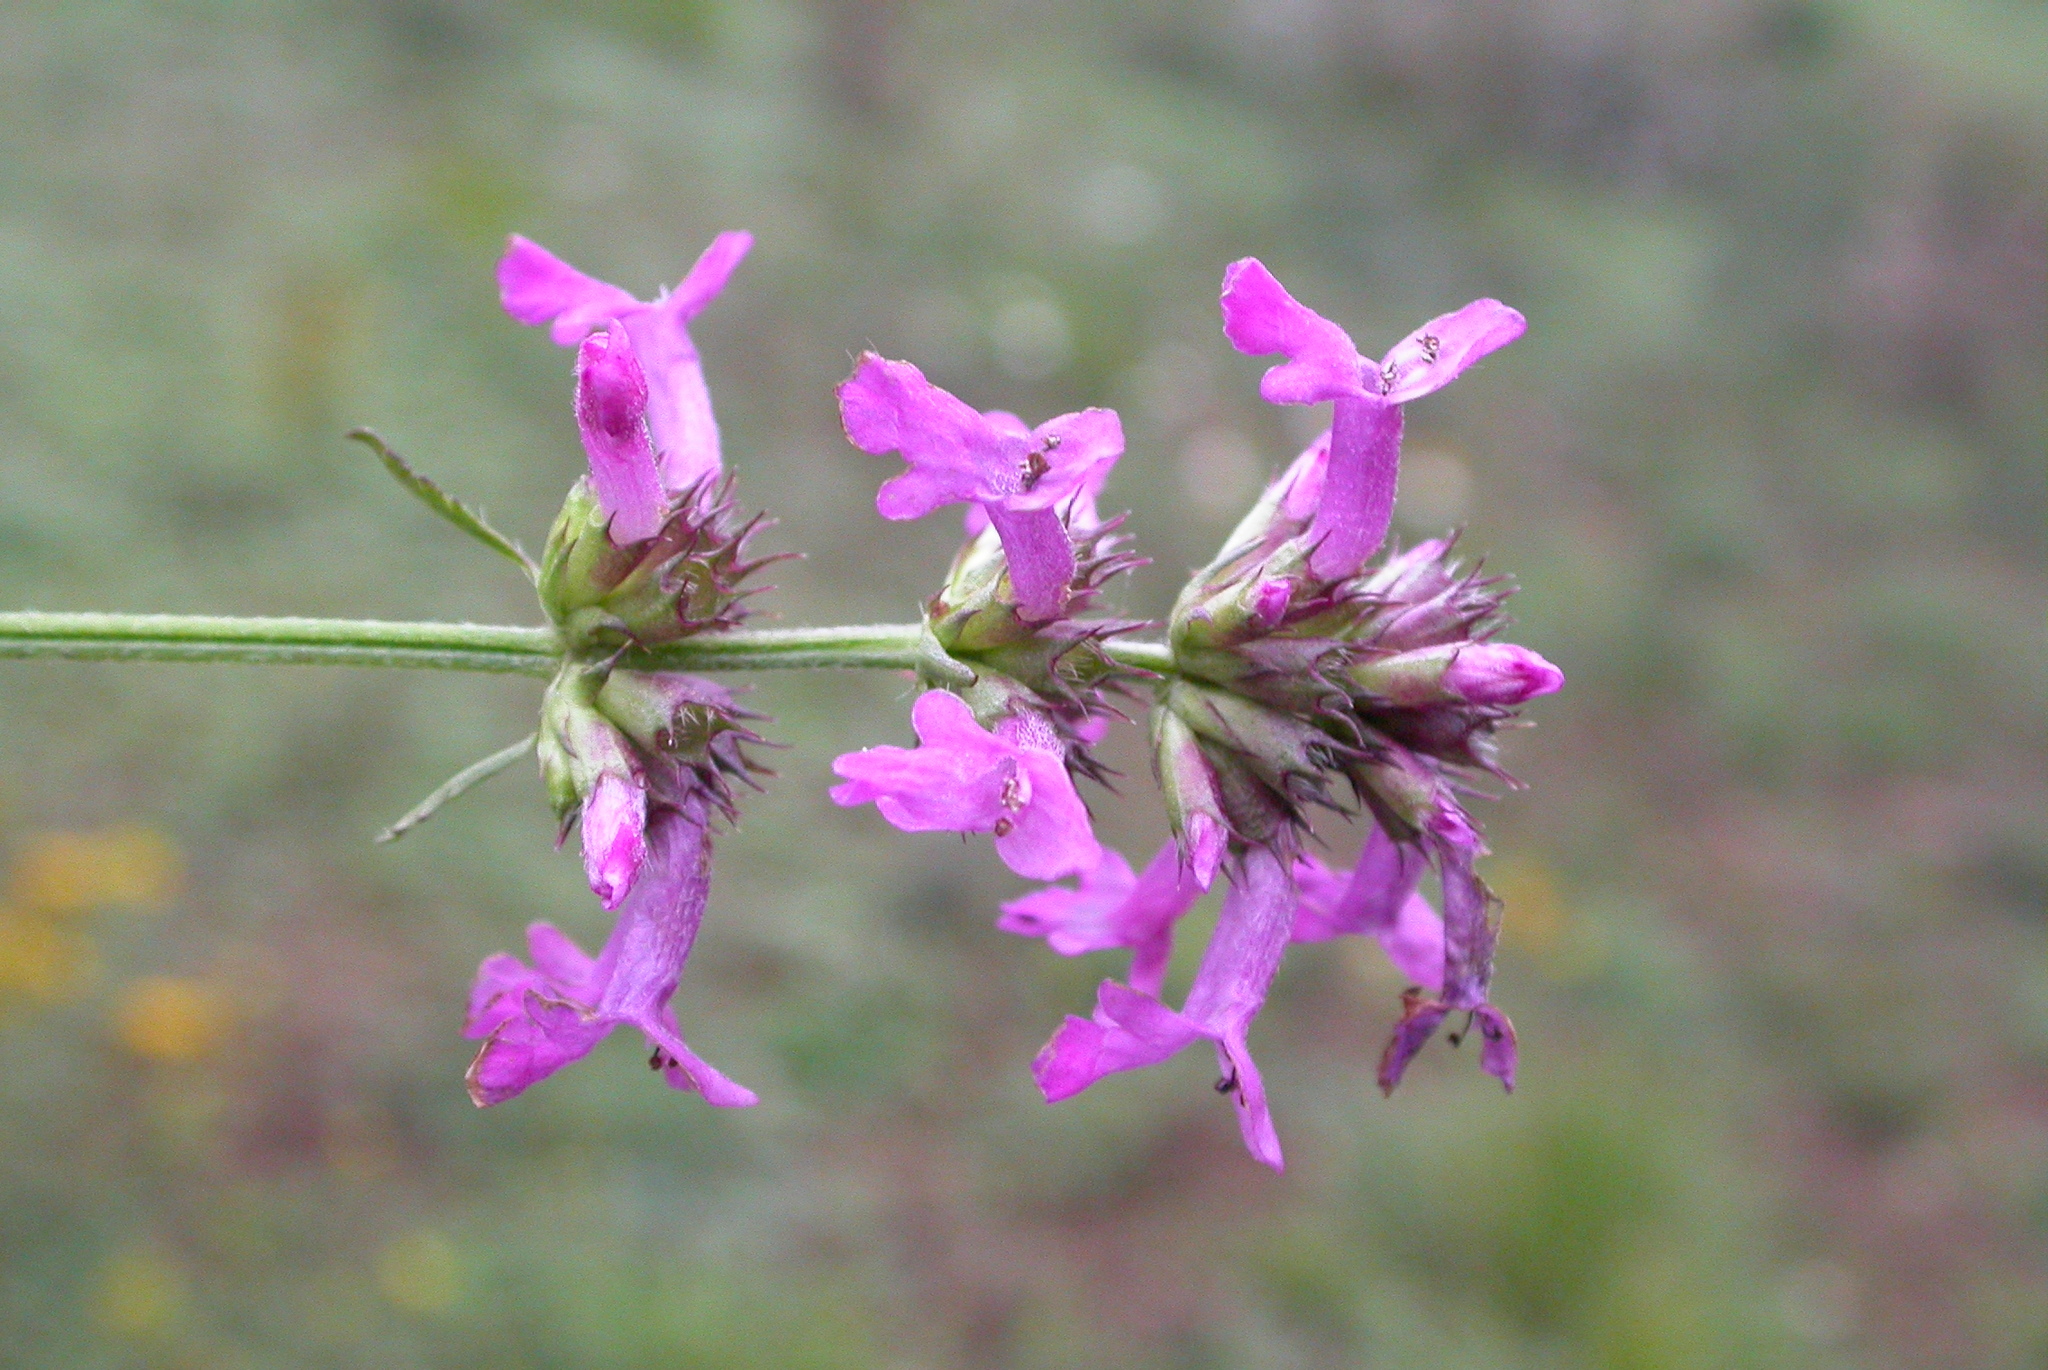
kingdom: Plantae
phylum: Tracheophyta
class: Magnoliopsida
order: Lamiales
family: Lamiaceae
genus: Betonica
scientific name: Betonica officinalis
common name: Bishop's-wort
